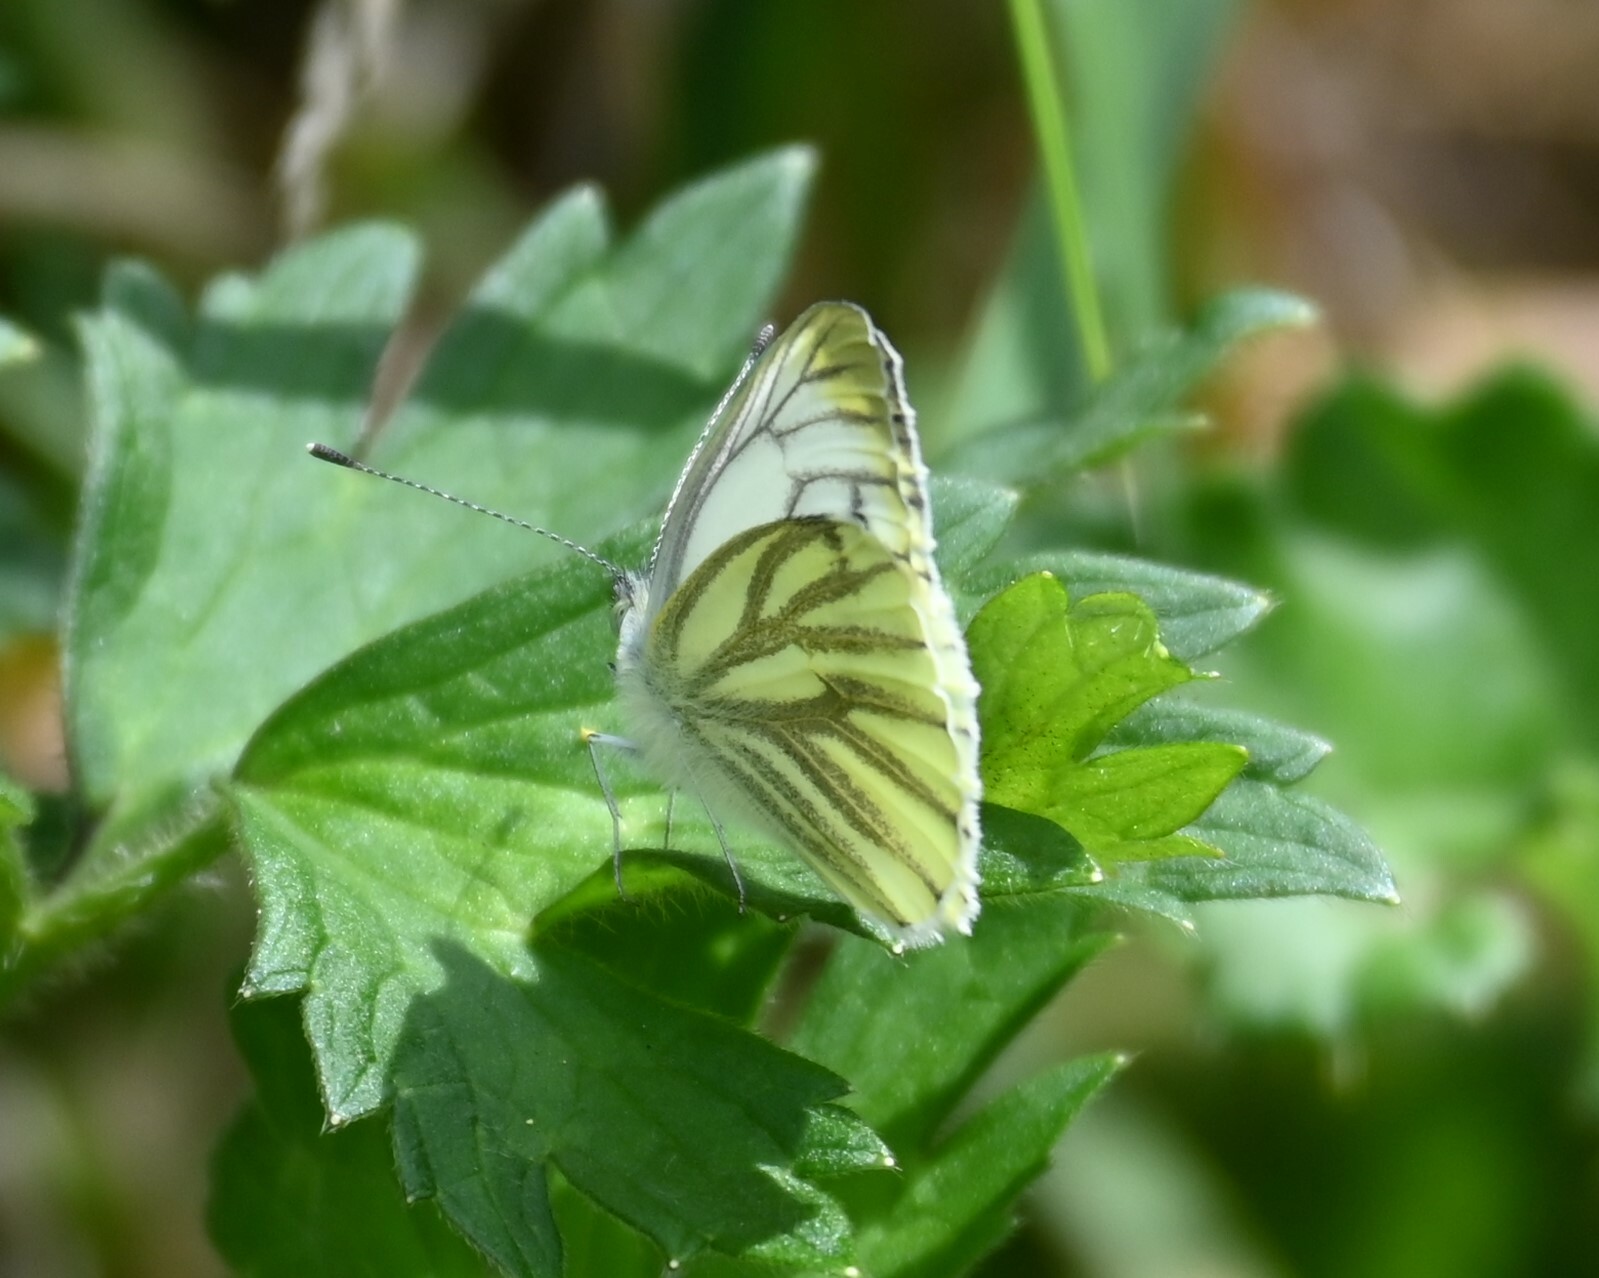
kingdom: Animalia
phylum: Arthropoda
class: Insecta
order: Lepidoptera
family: Pieridae
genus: Pieris
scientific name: Pieris napi
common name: Green-veined white
